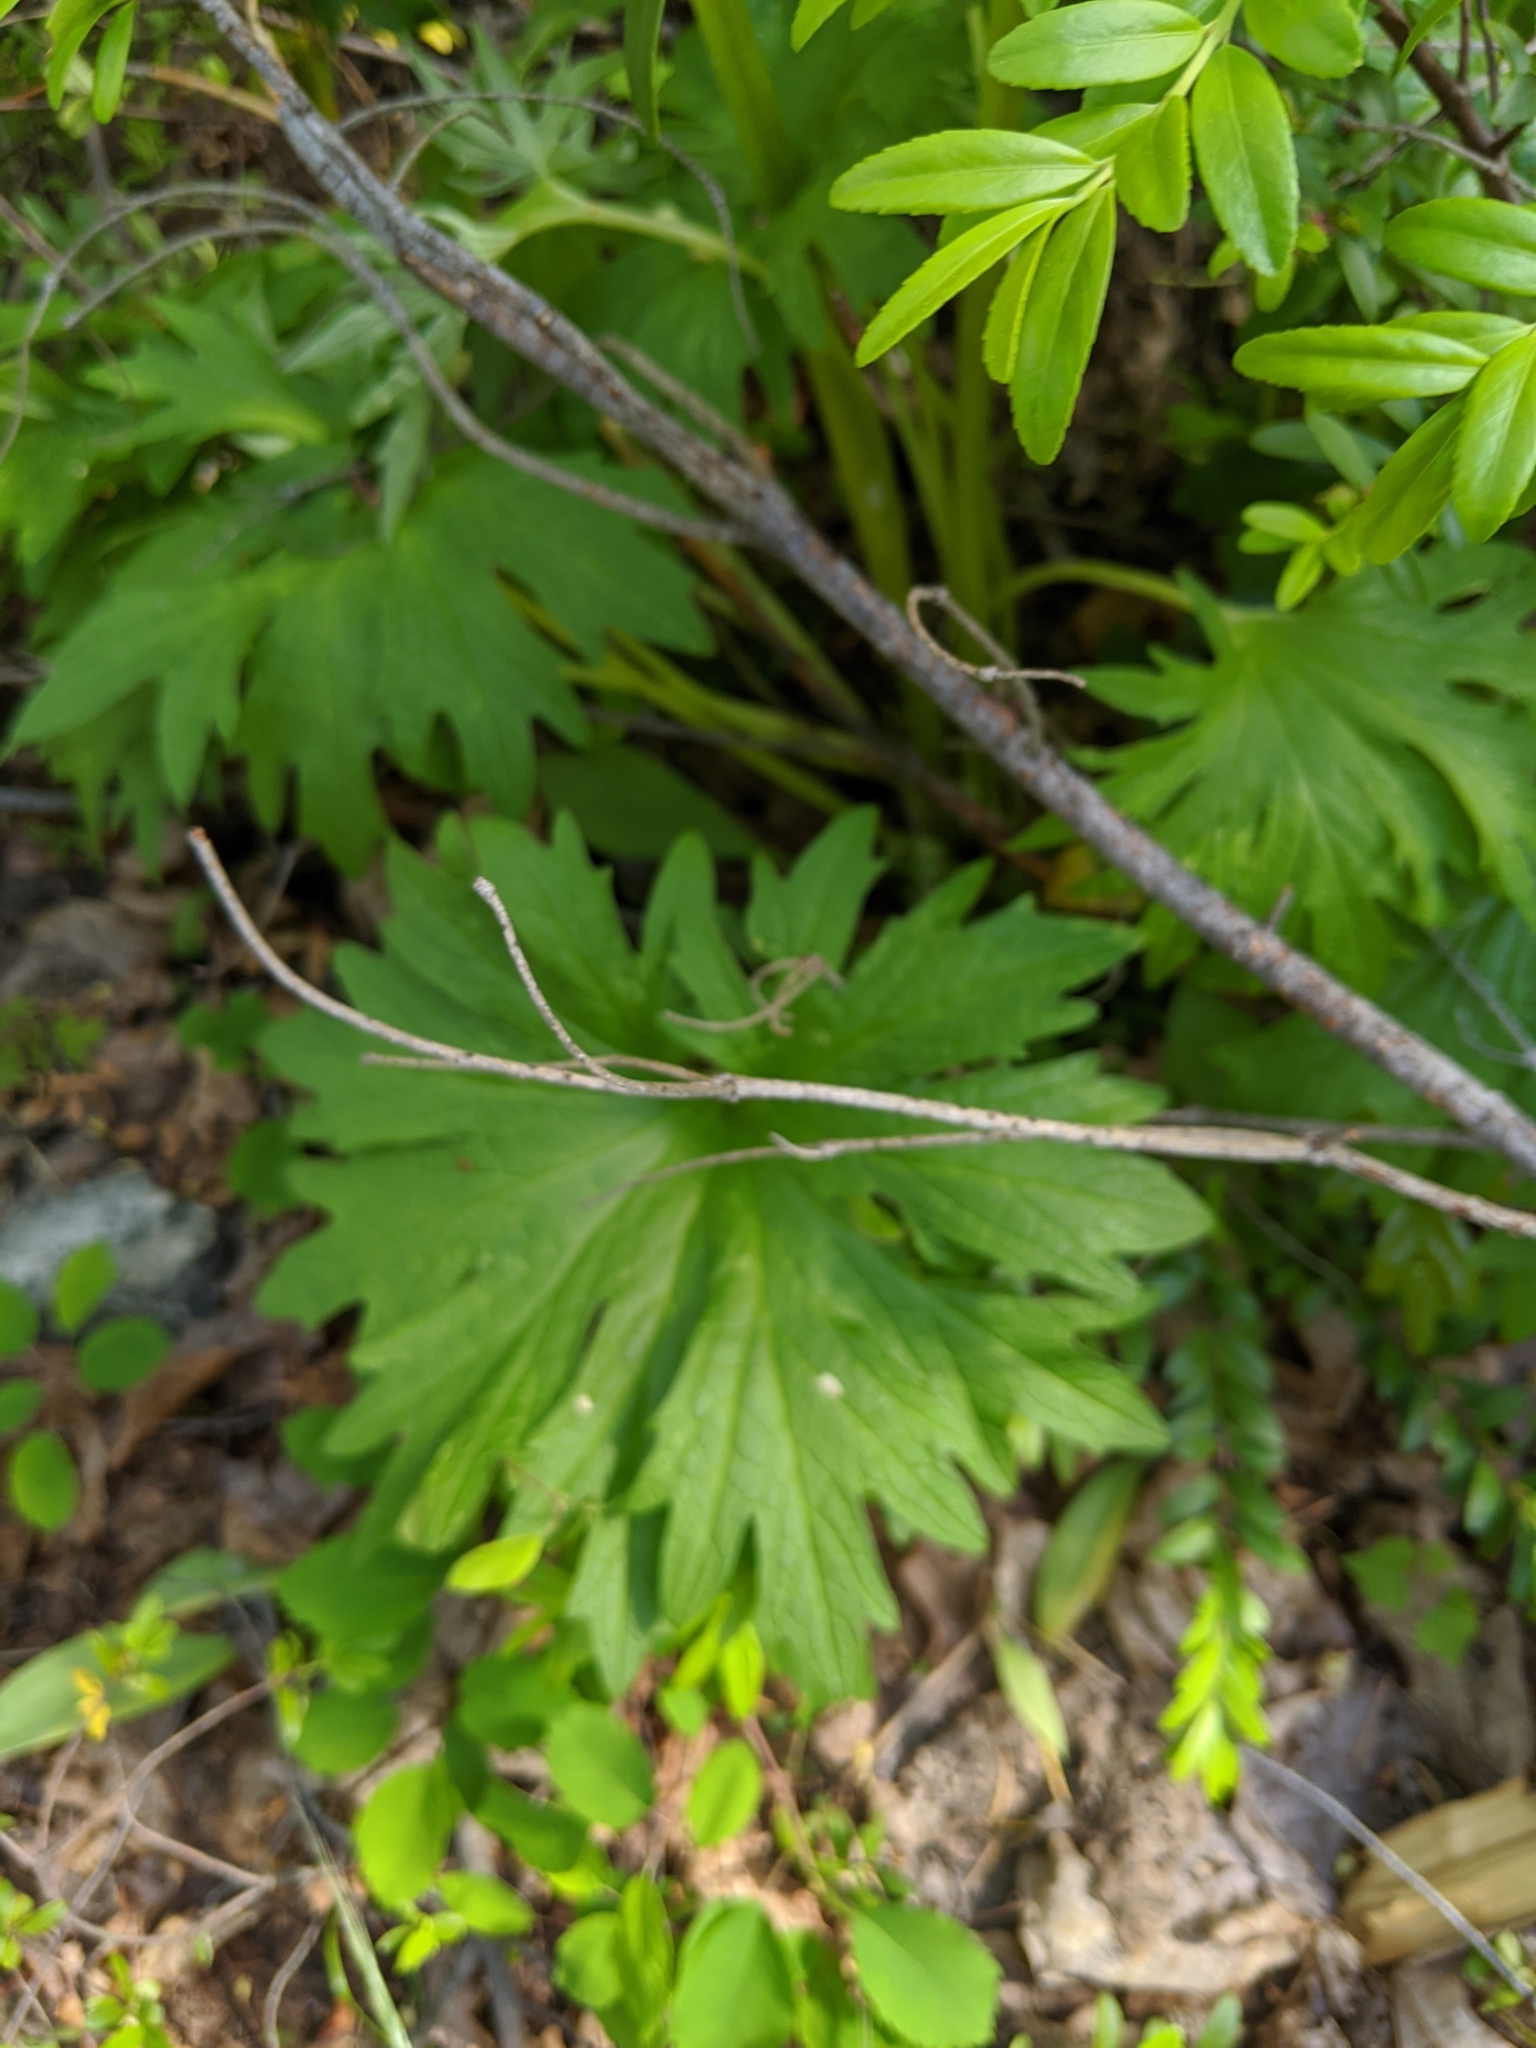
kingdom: Plantae
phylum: Tracheophyta
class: Magnoliopsida
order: Asterales
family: Asteraceae
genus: Cacaliopsis
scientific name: Cacaliopsis nardosmia
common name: Silvercrown
